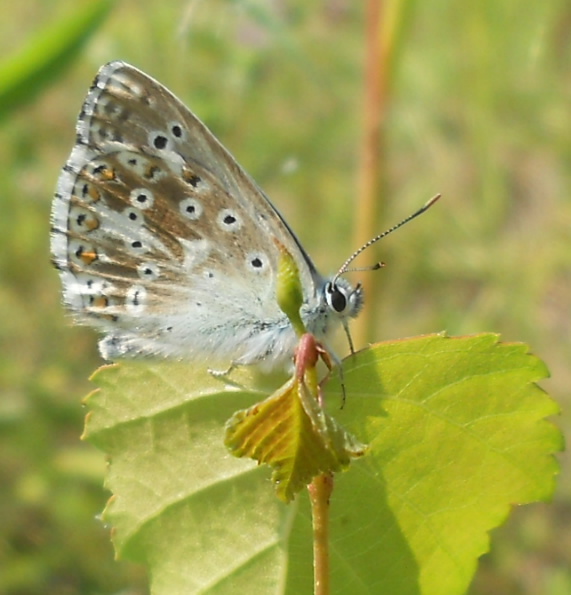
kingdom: Animalia
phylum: Arthropoda
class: Insecta
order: Lepidoptera
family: Lycaenidae
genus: Lysandra
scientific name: Lysandra coridon
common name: Chalkhill blue
